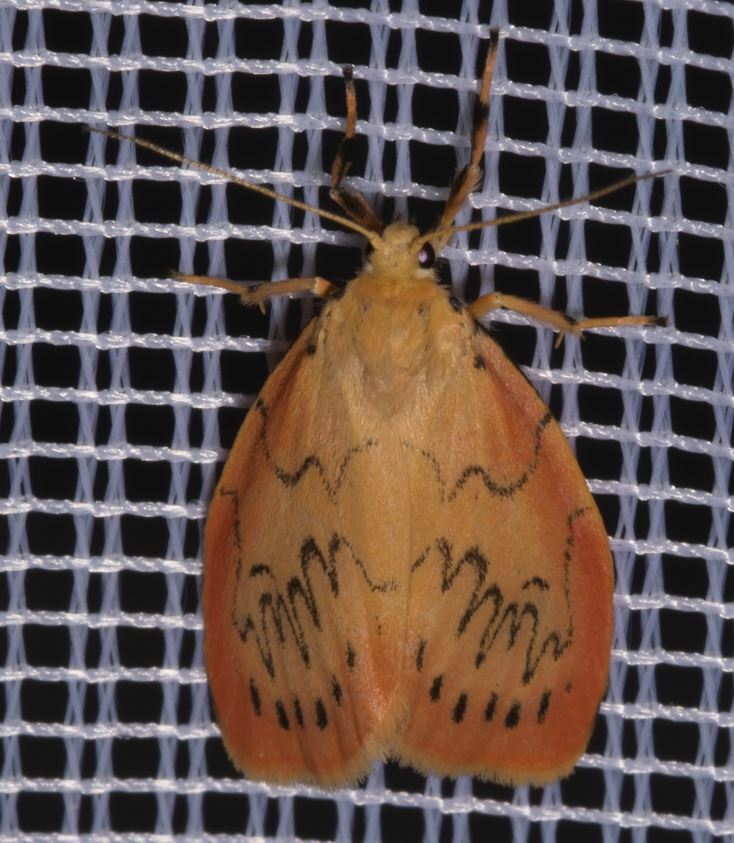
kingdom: Animalia
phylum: Arthropoda
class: Insecta
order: Lepidoptera
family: Erebidae
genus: Miltochrista
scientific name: Miltochrista miniata
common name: Rosy footman
